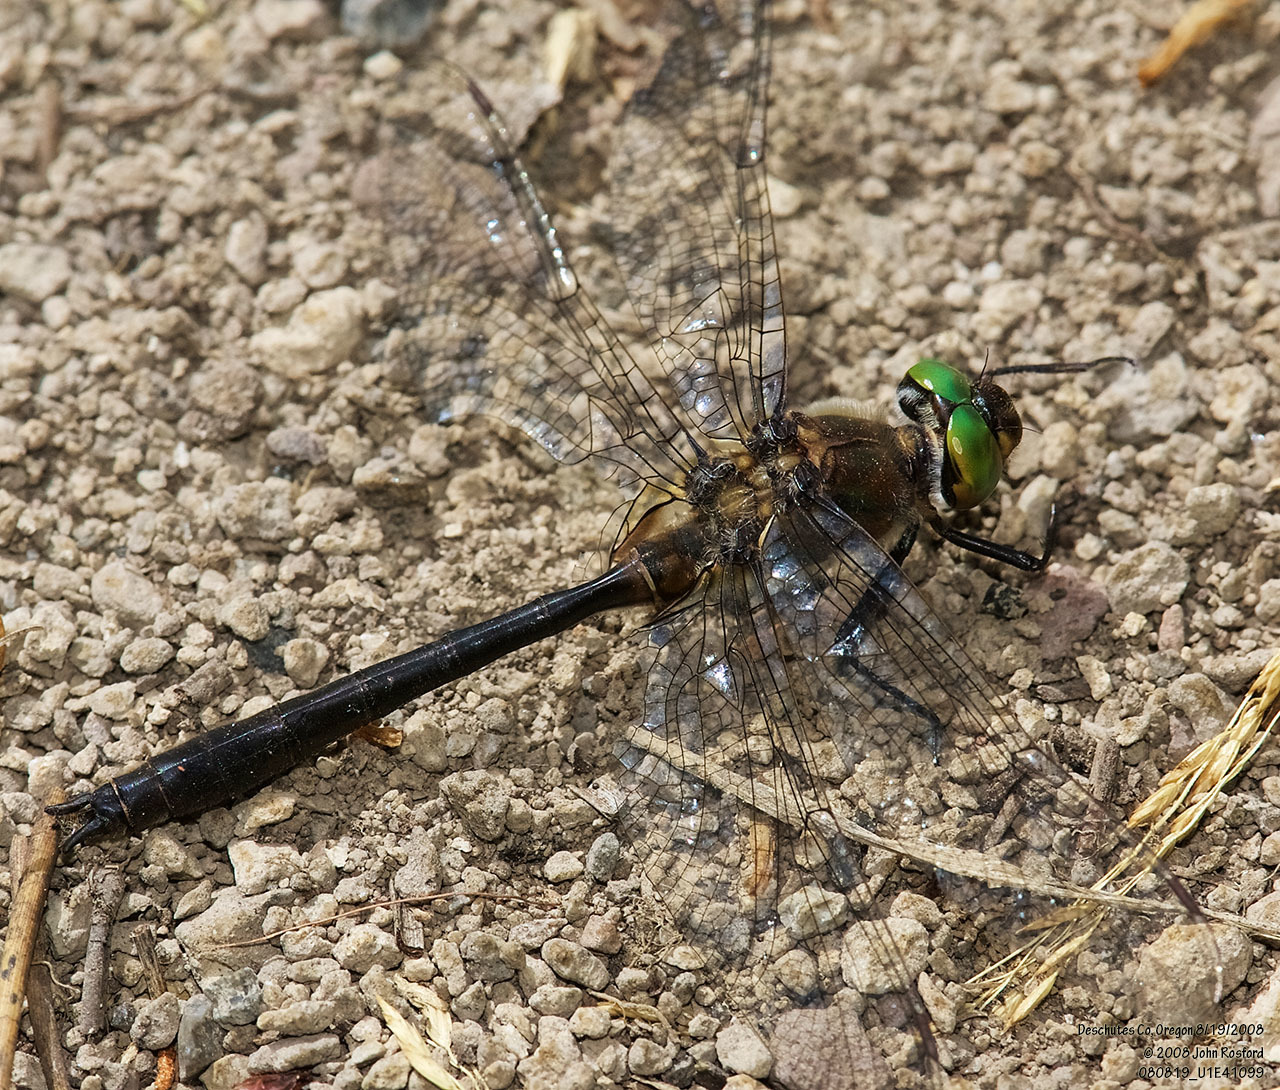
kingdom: Animalia
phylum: Arthropoda
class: Insecta
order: Odonata
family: Corduliidae
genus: Cordulia
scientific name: Cordulia shurtleffii
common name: American emerald
